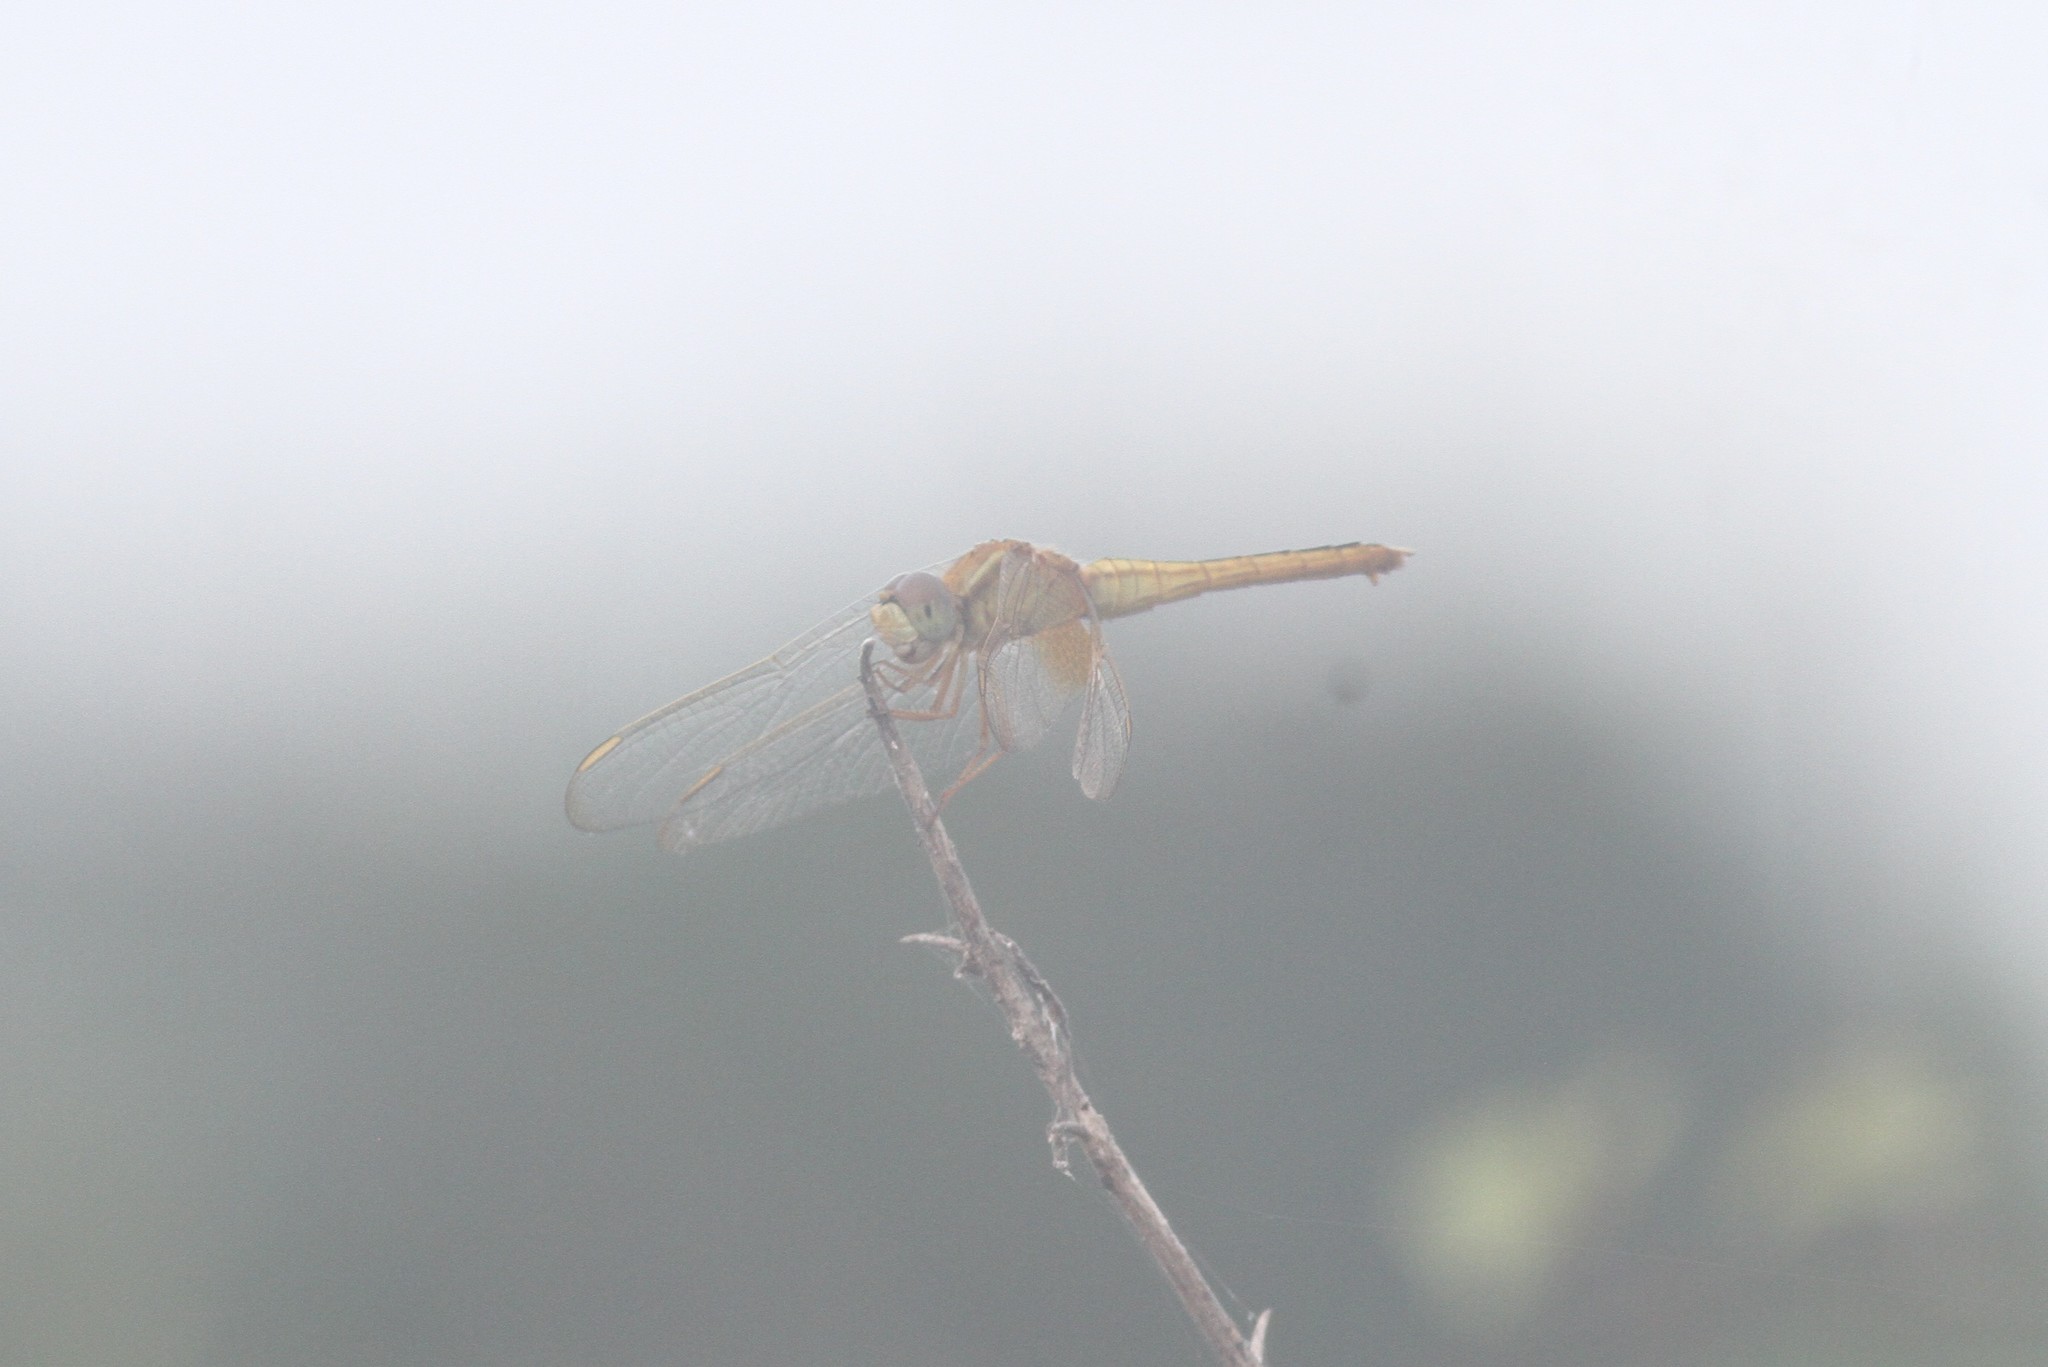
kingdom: Animalia
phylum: Arthropoda
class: Insecta
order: Odonata
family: Libellulidae
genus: Crocothemis
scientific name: Crocothemis servilia
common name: Scarlet skimmer
